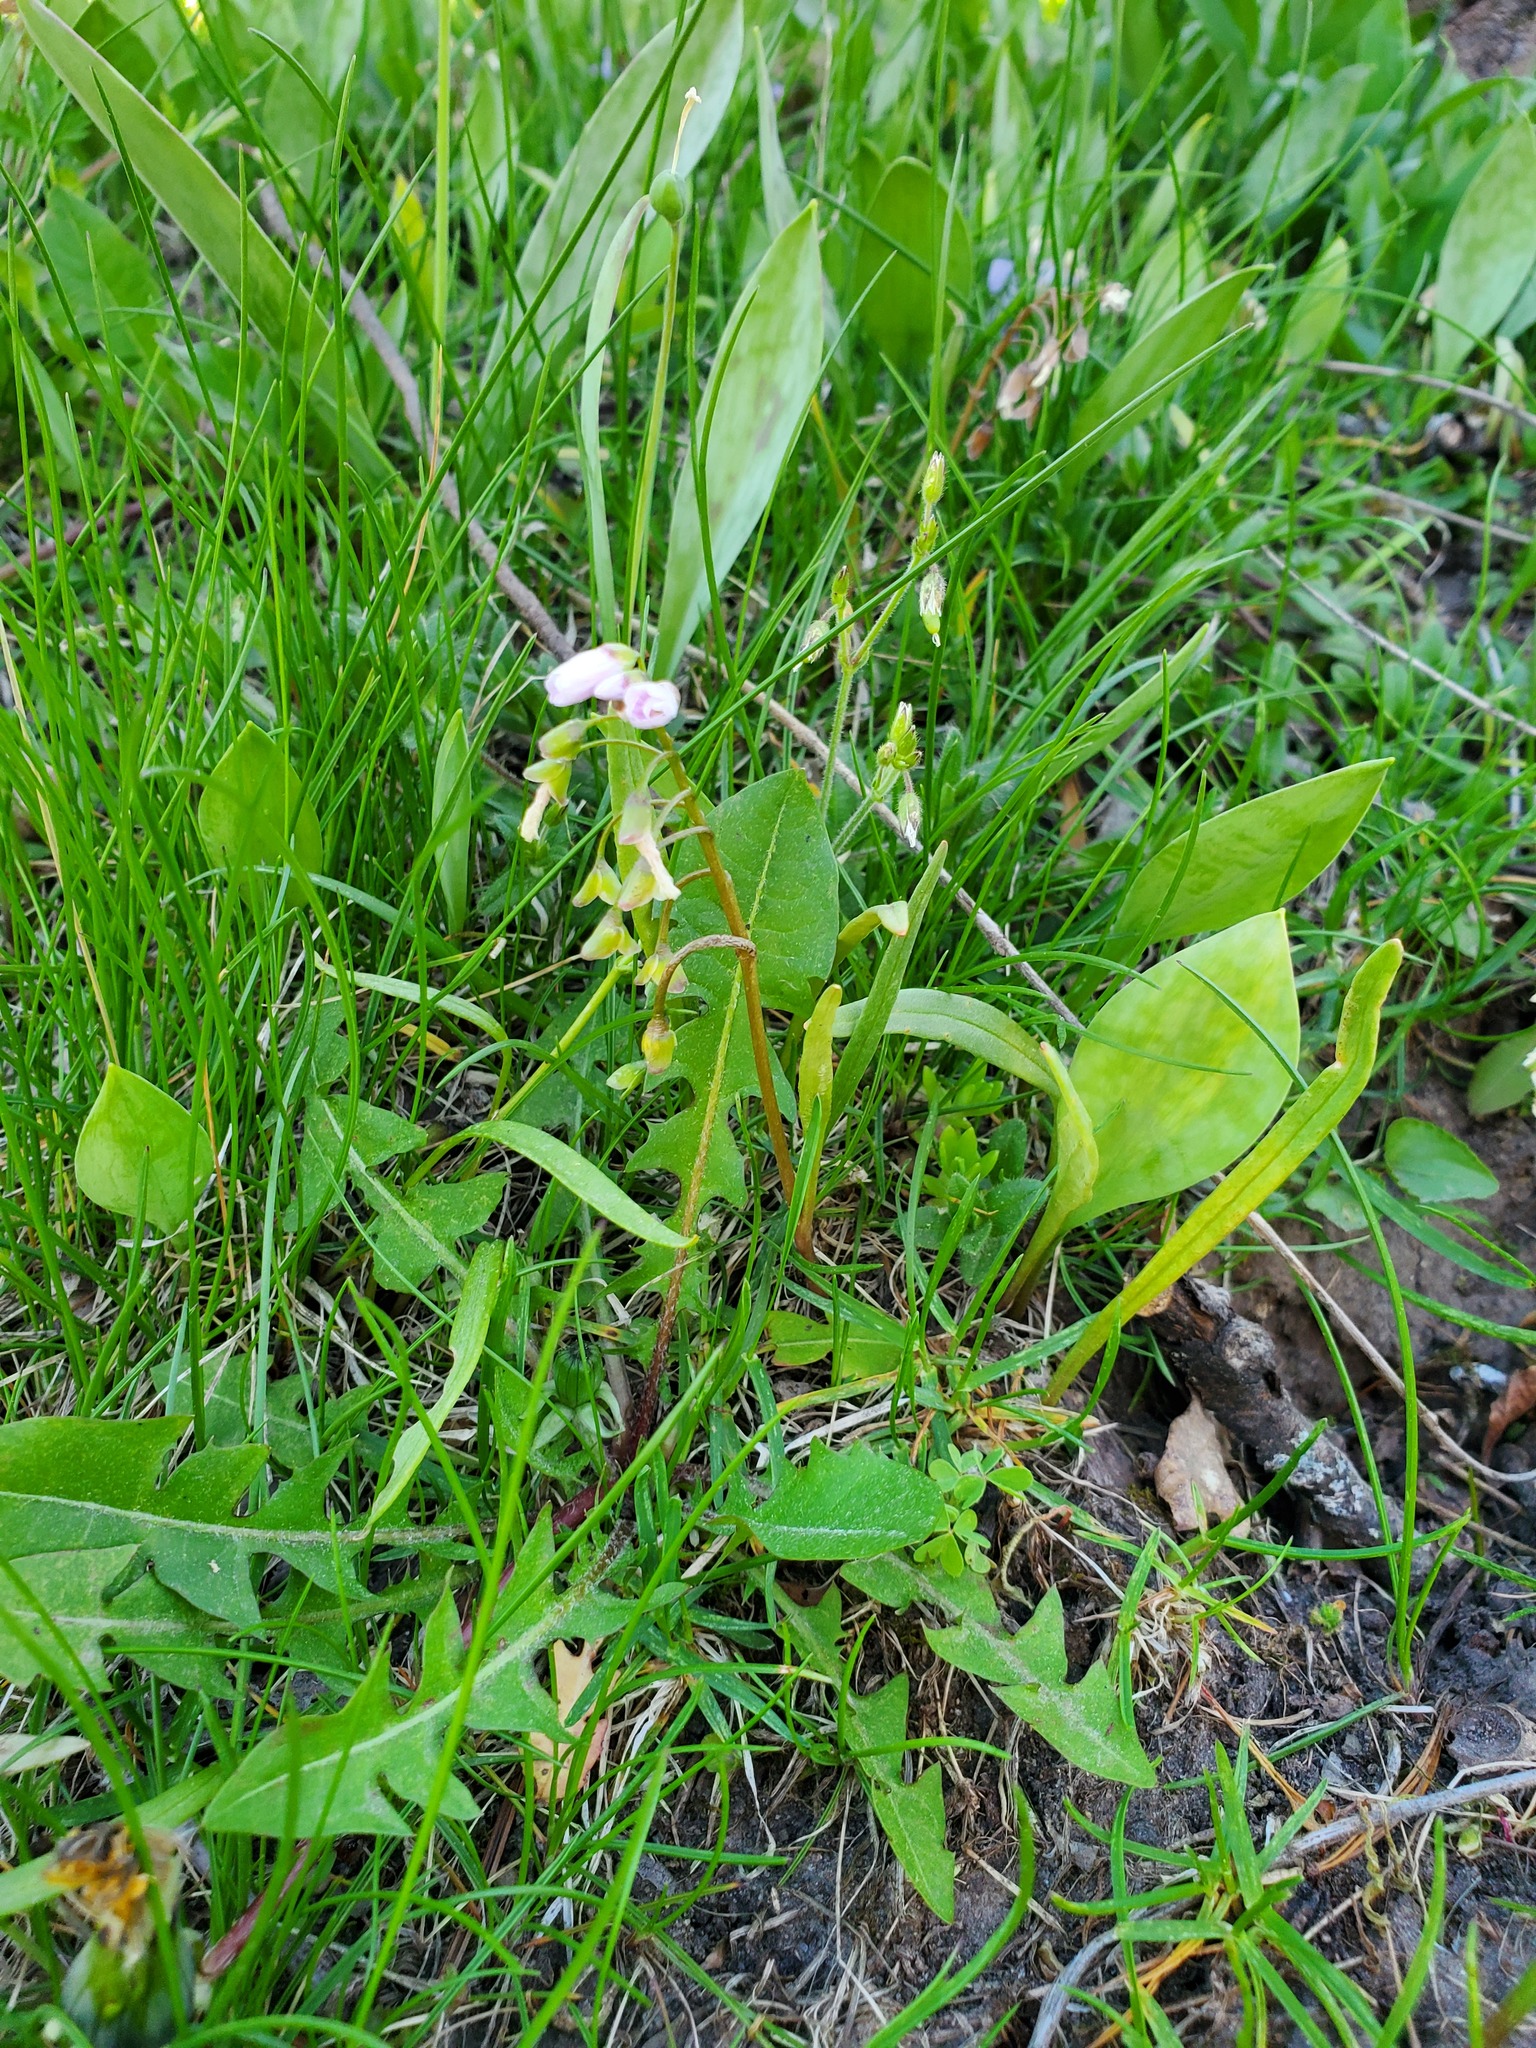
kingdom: Plantae
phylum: Tracheophyta
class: Magnoliopsida
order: Caryophyllales
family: Montiaceae
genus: Claytonia
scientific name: Claytonia virginica
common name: Virginia springbeauty
